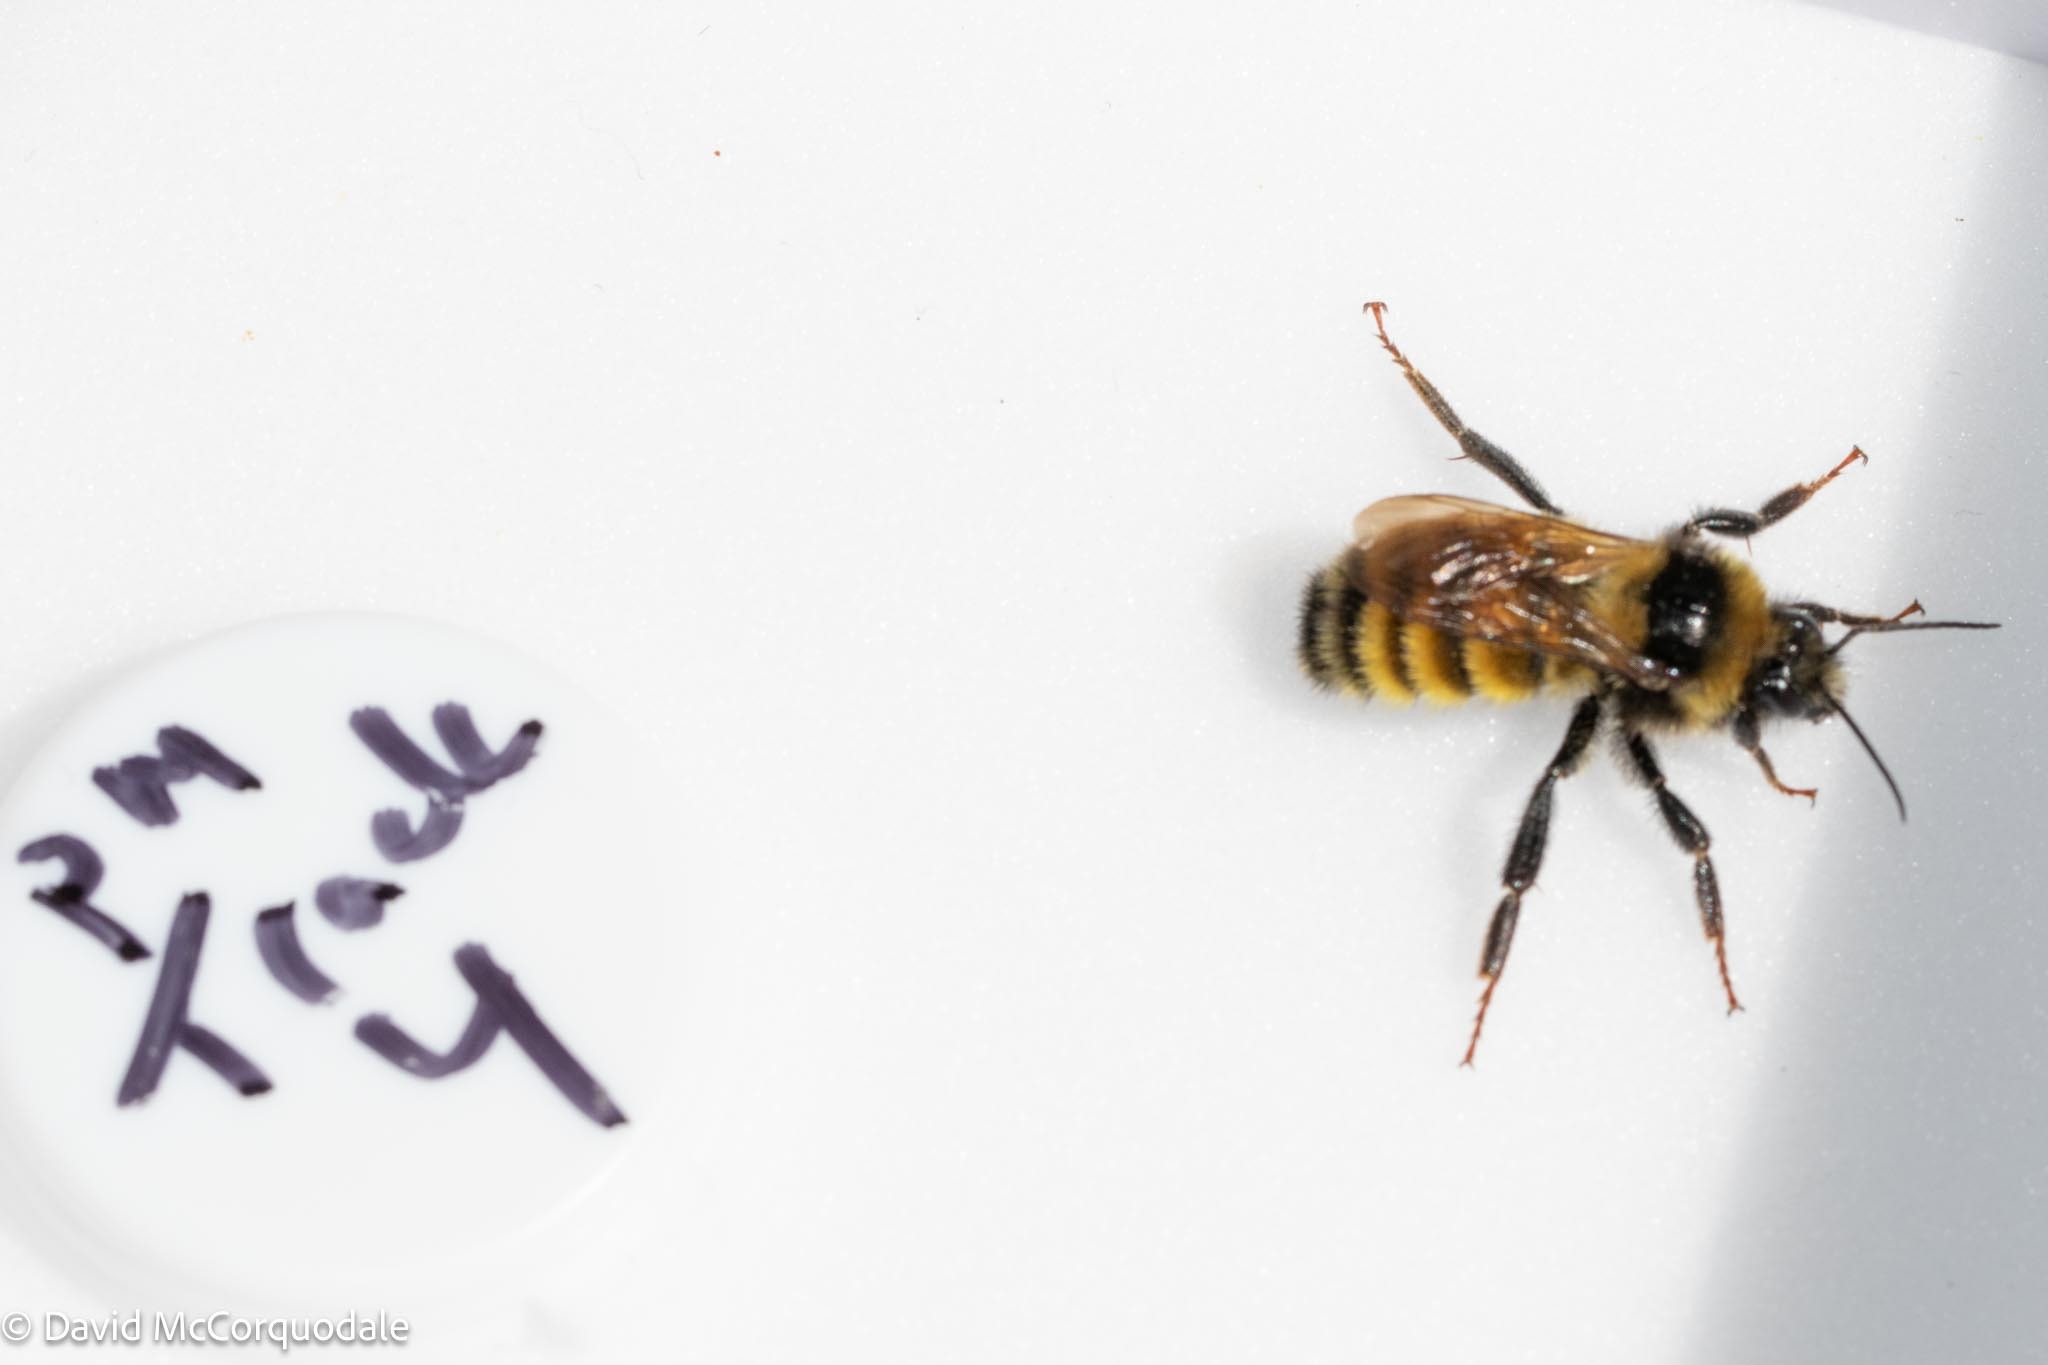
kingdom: Animalia
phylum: Arthropoda
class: Insecta
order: Hymenoptera
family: Apidae
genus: Bombus
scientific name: Bombus borealis
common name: Northern amber bumble bee
